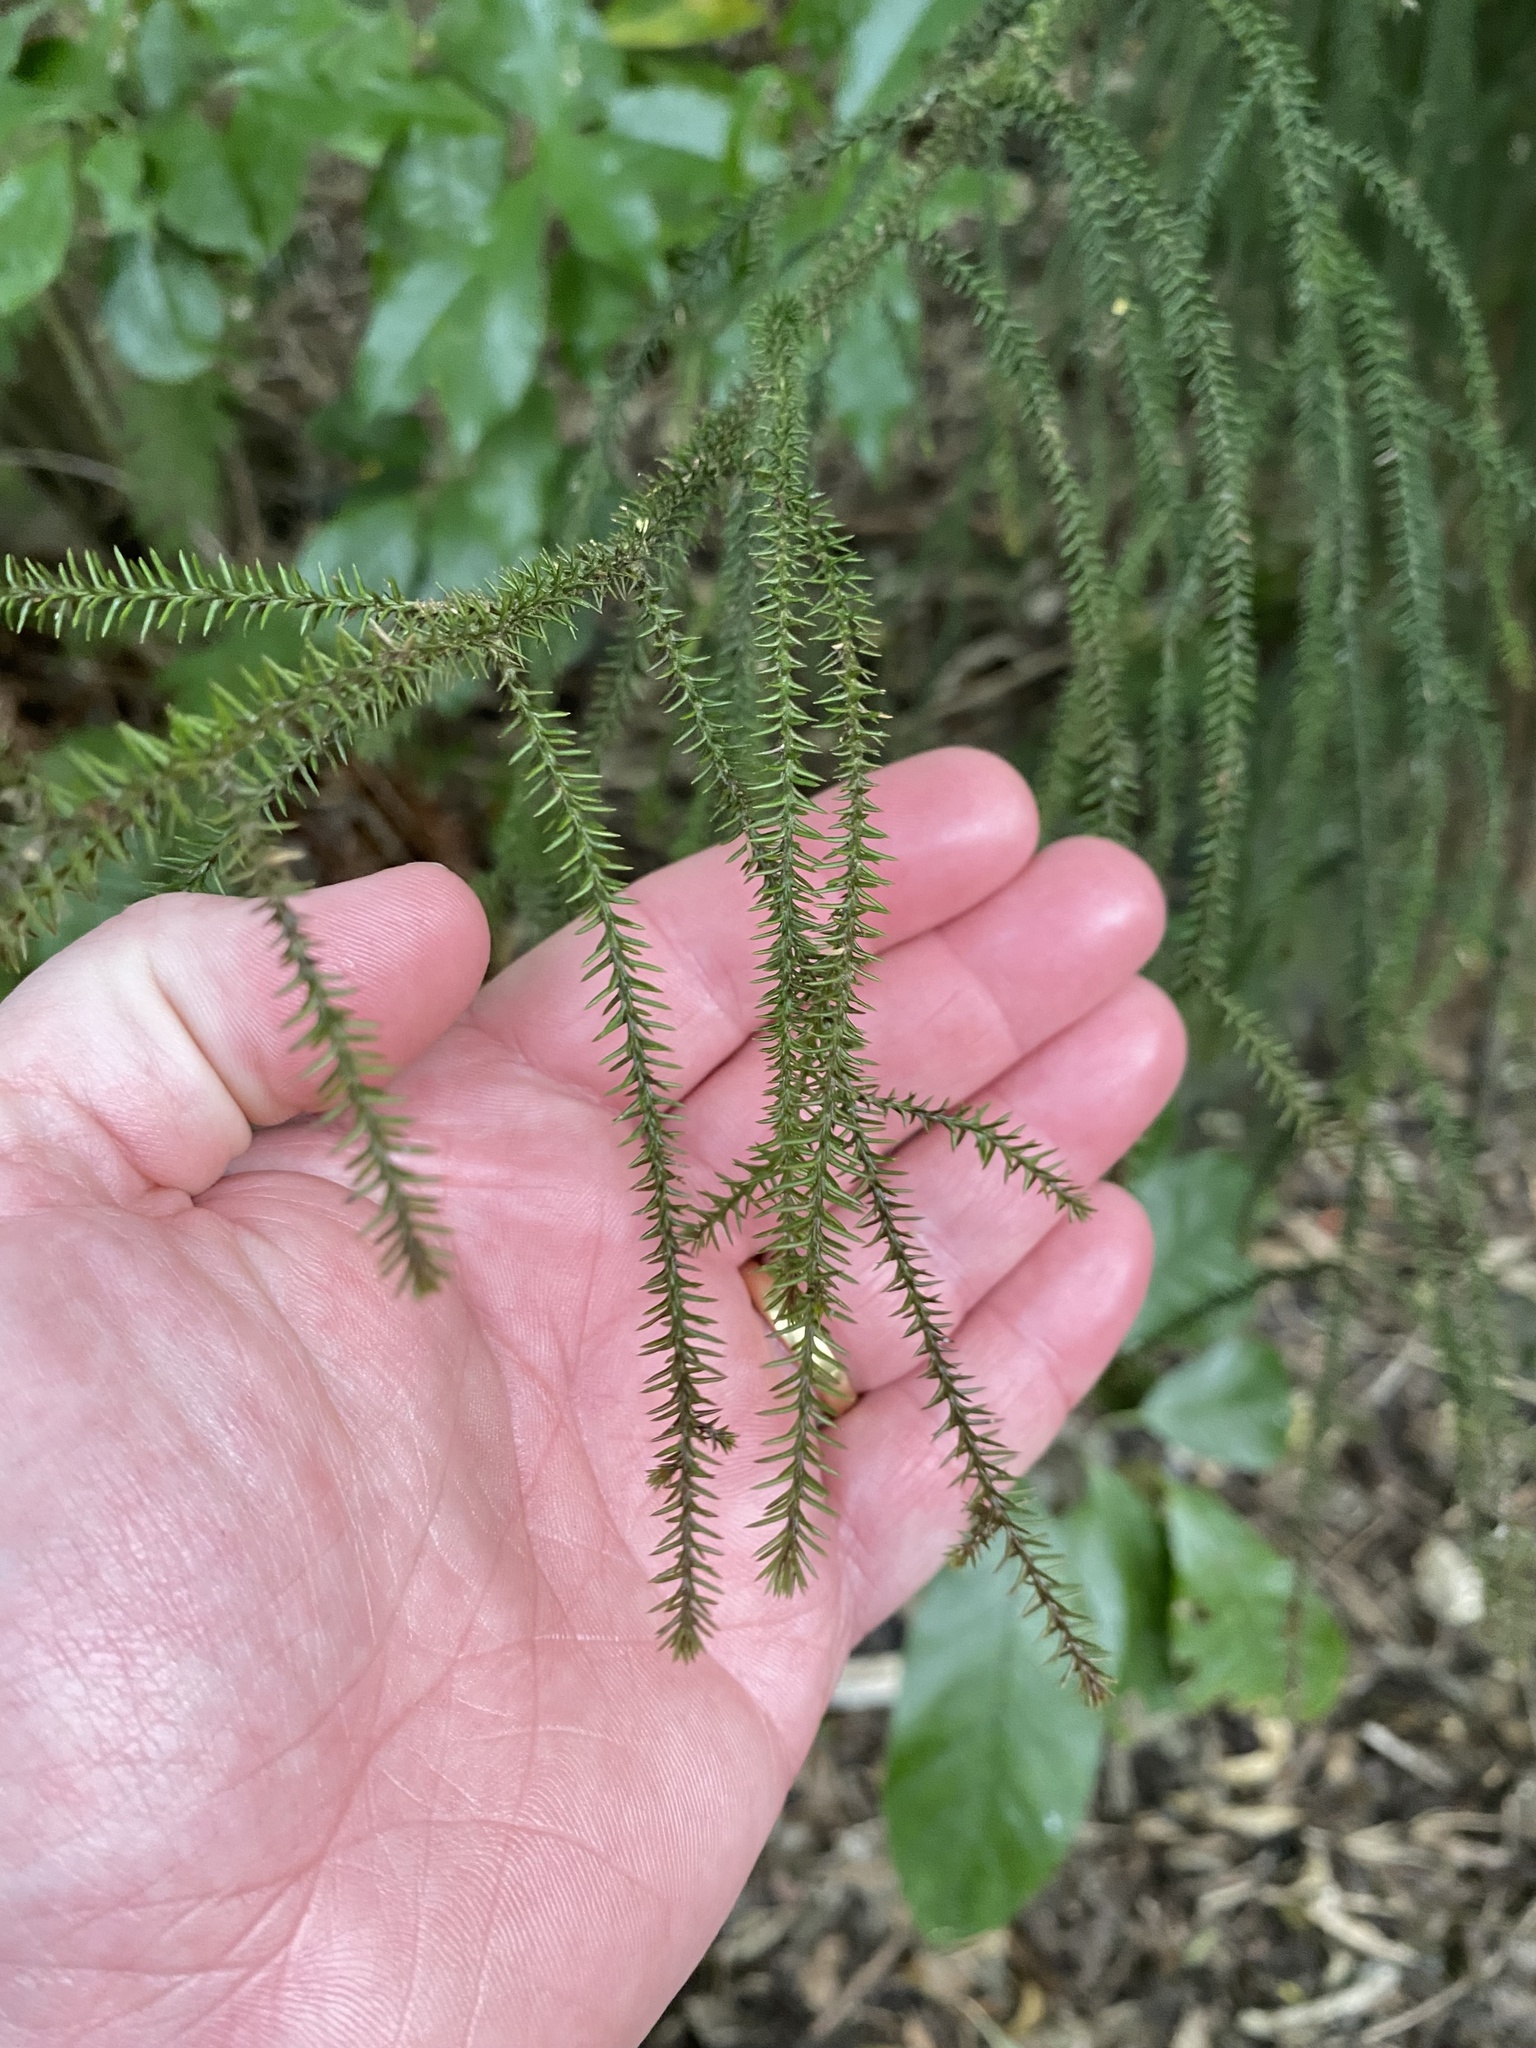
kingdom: Plantae
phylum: Tracheophyta
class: Pinopsida
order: Pinales
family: Podocarpaceae
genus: Dacrydium
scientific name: Dacrydium cupressinum
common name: Red pine
